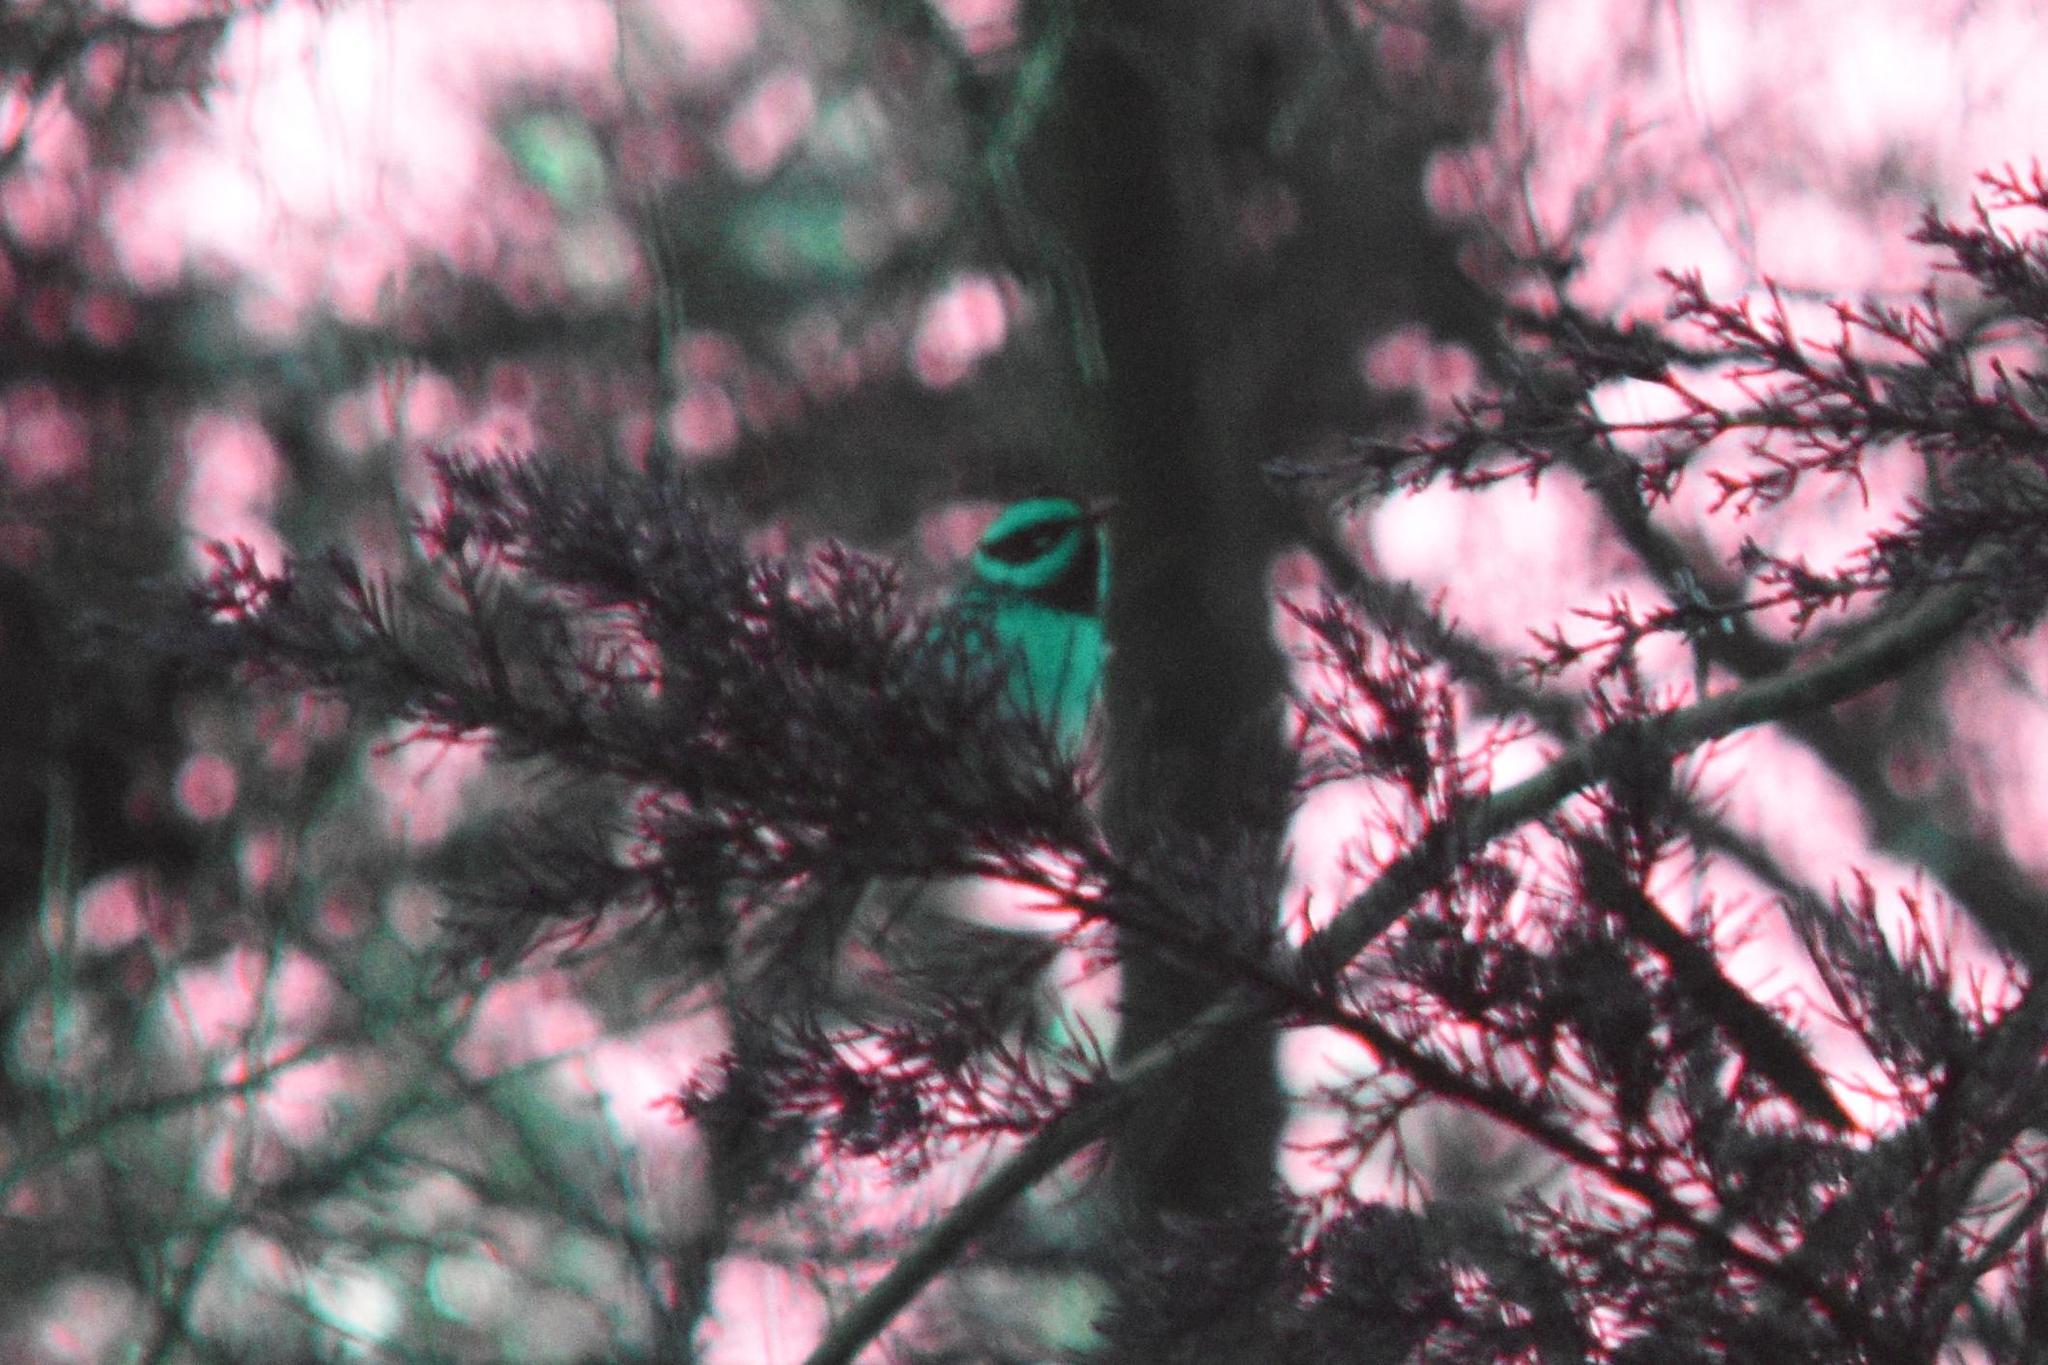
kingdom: Animalia
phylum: Chordata
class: Aves
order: Passeriformes
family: Parulidae
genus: Setophaga
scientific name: Setophaga townsendi
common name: Townsend's warbler
